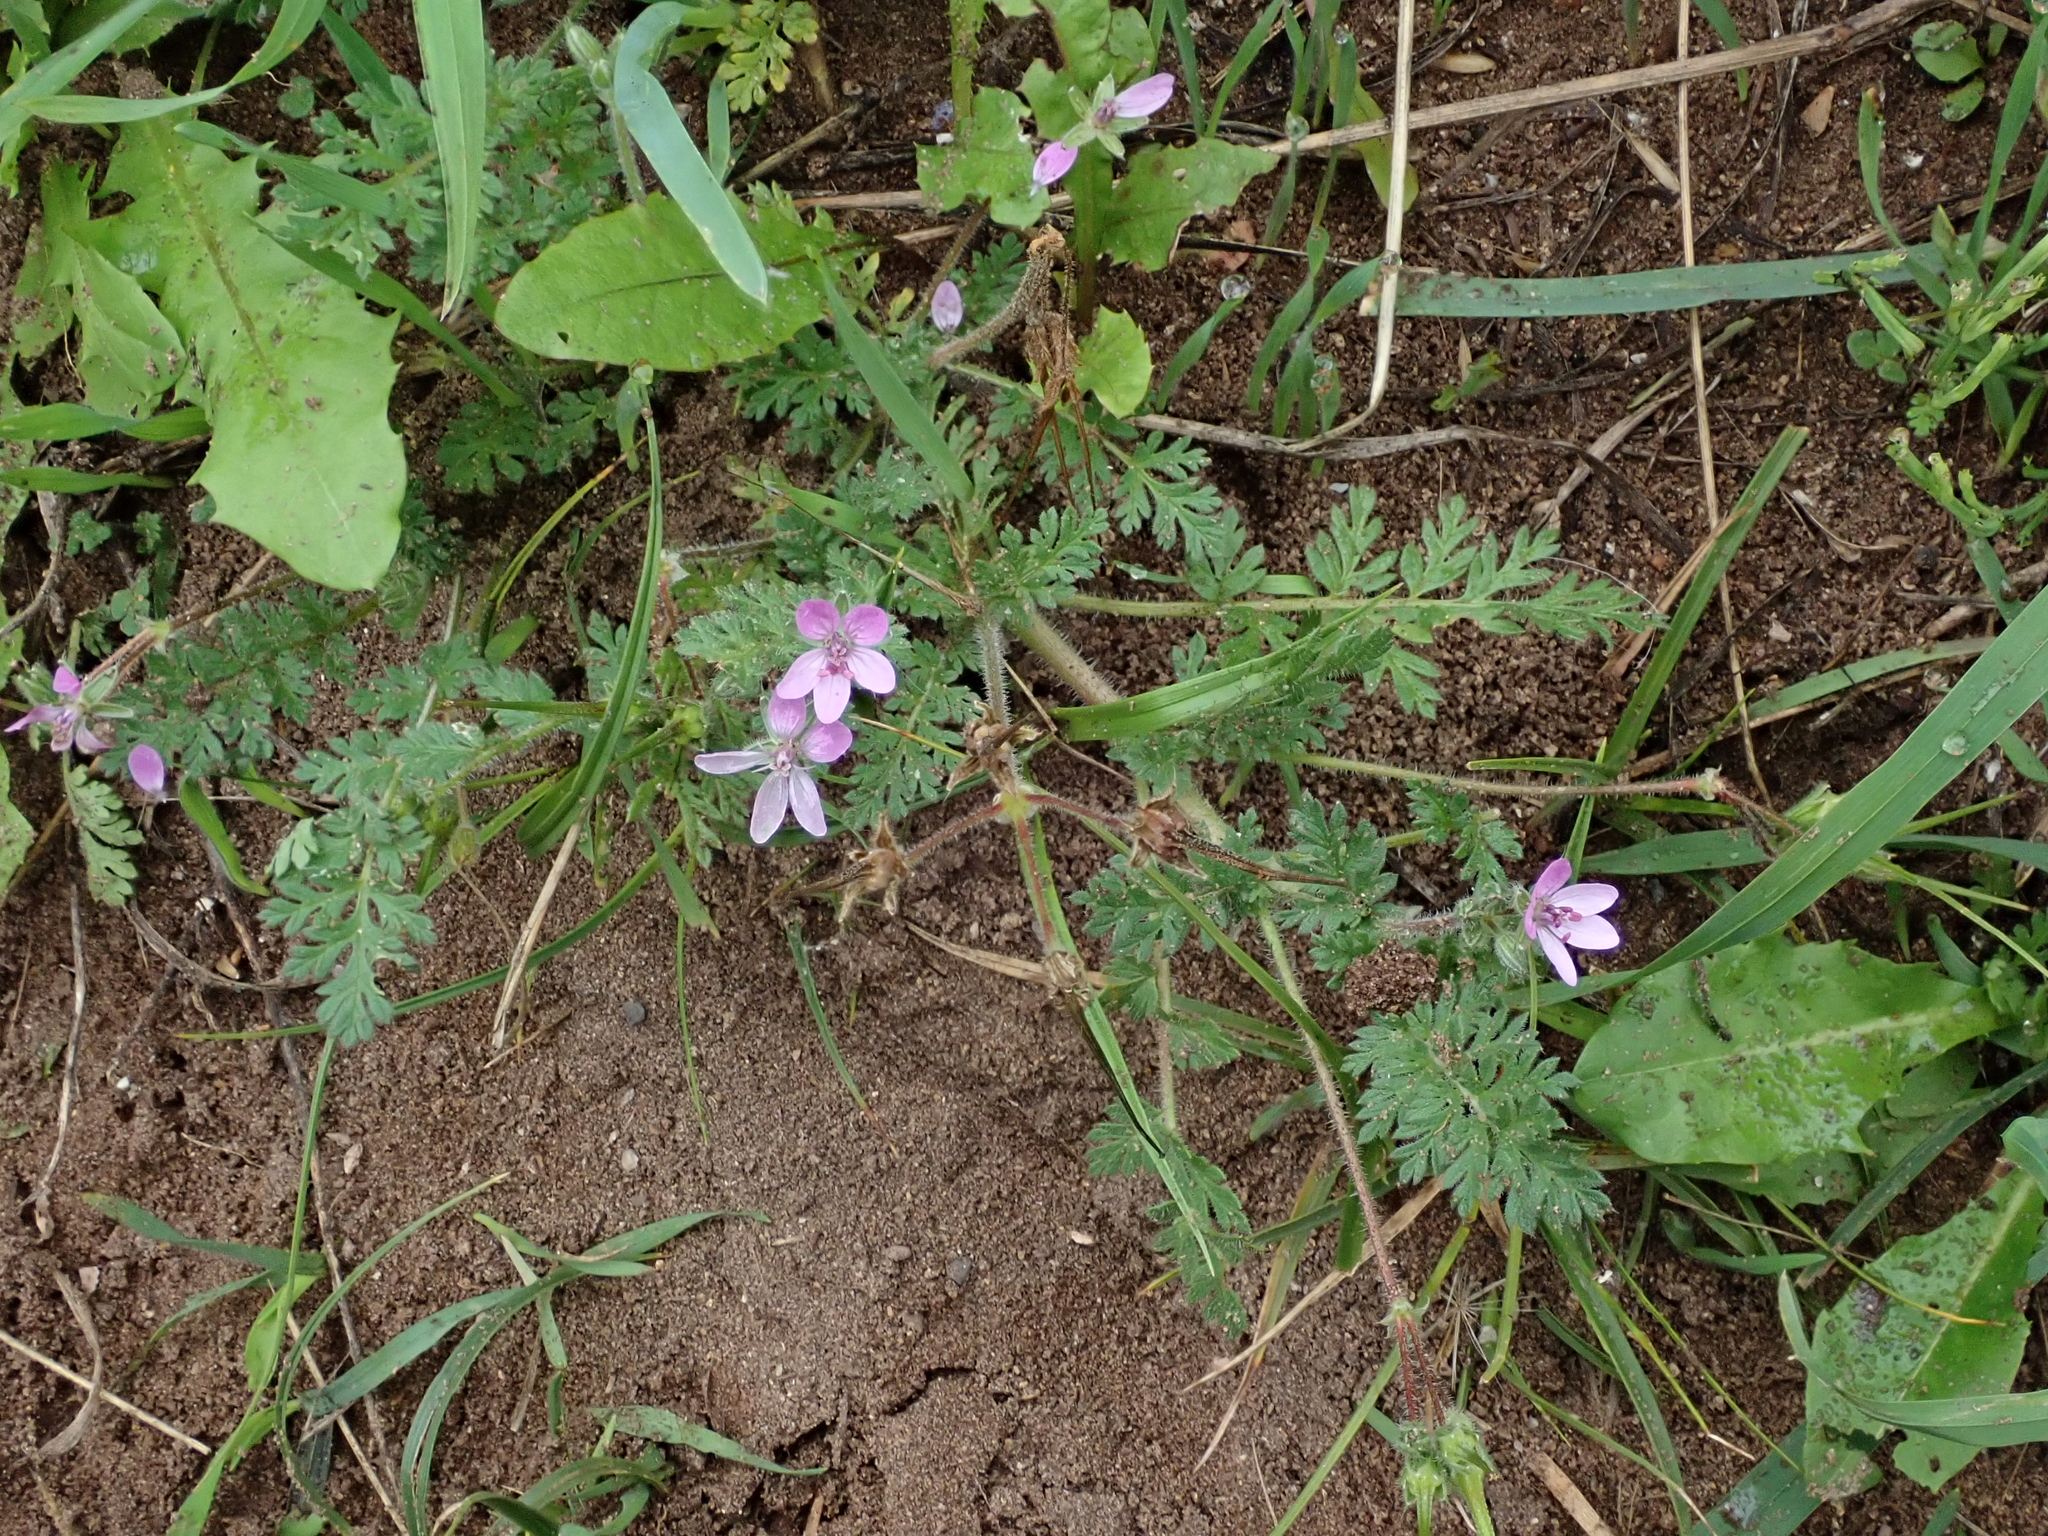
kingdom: Plantae
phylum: Tracheophyta
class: Magnoliopsida
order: Geraniales
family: Geraniaceae
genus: Erodium
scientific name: Erodium cicutarium
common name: Common stork's-bill
